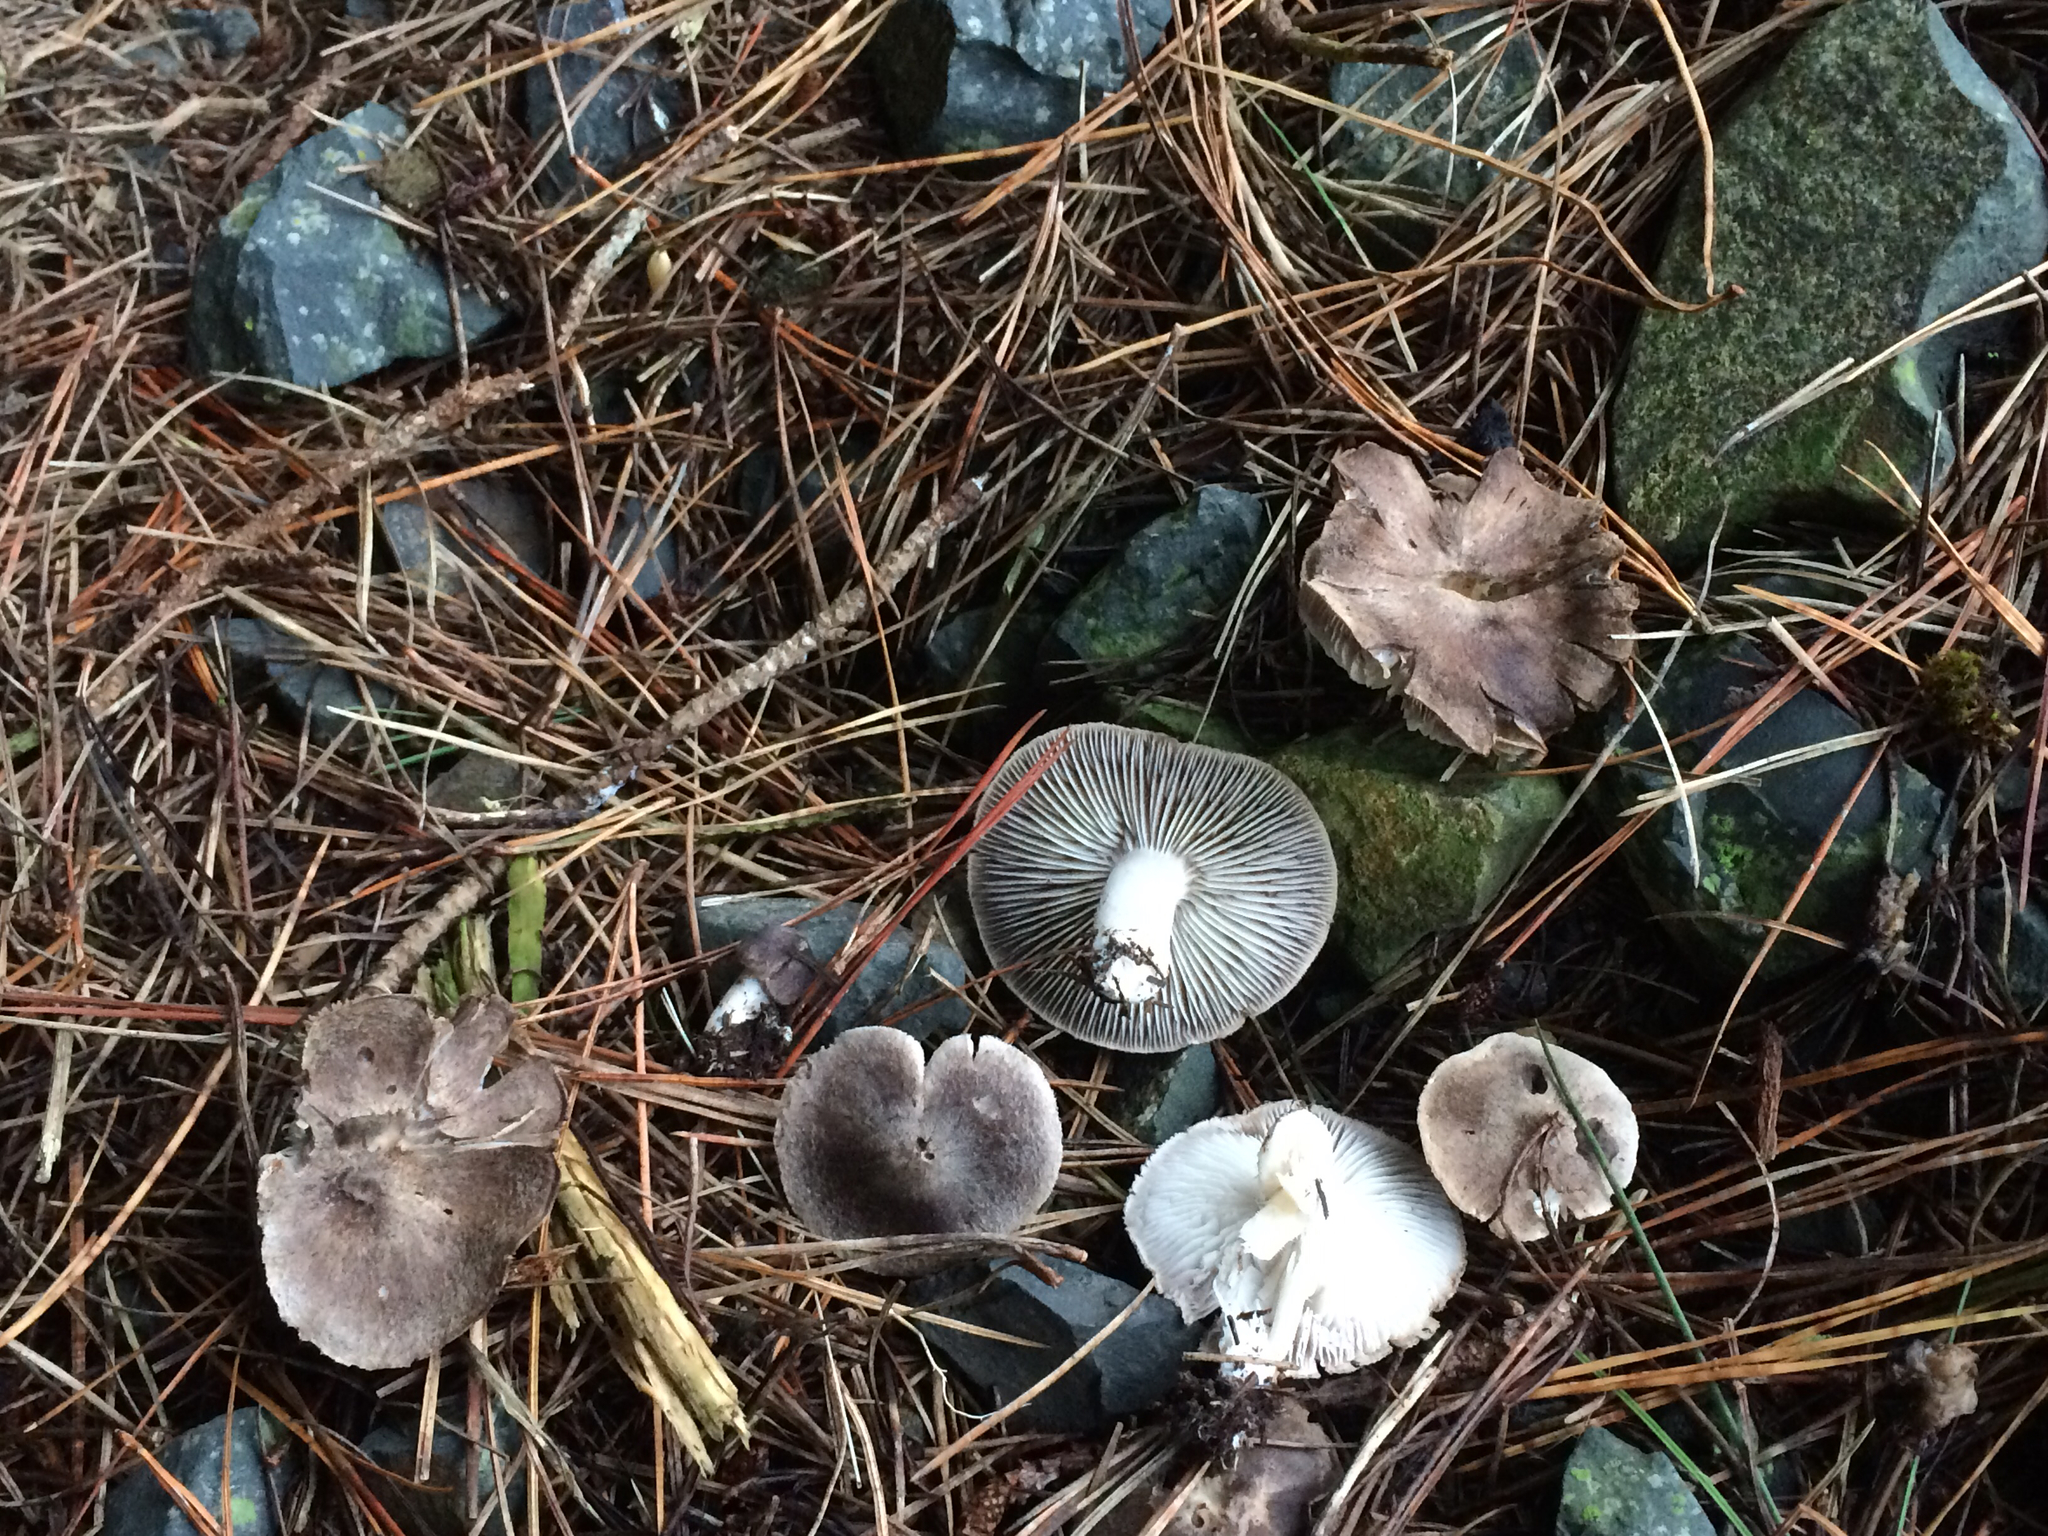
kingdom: Fungi
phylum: Basidiomycota
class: Agaricomycetes
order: Agaricales
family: Tricholomataceae
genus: Tricholoma
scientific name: Tricholoma terreum
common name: Grey knight
